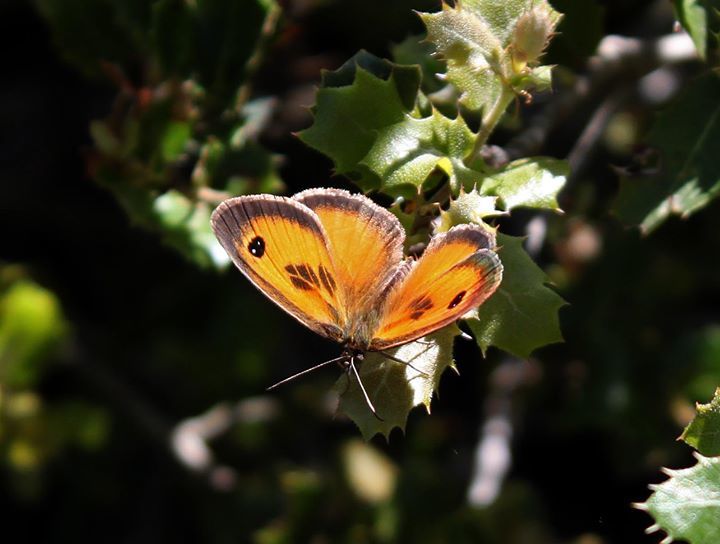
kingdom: Animalia
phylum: Arthropoda
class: Insecta
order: Lepidoptera
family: Nymphalidae
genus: Pyronia
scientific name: Pyronia cecilia
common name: Southern gatekeeper
